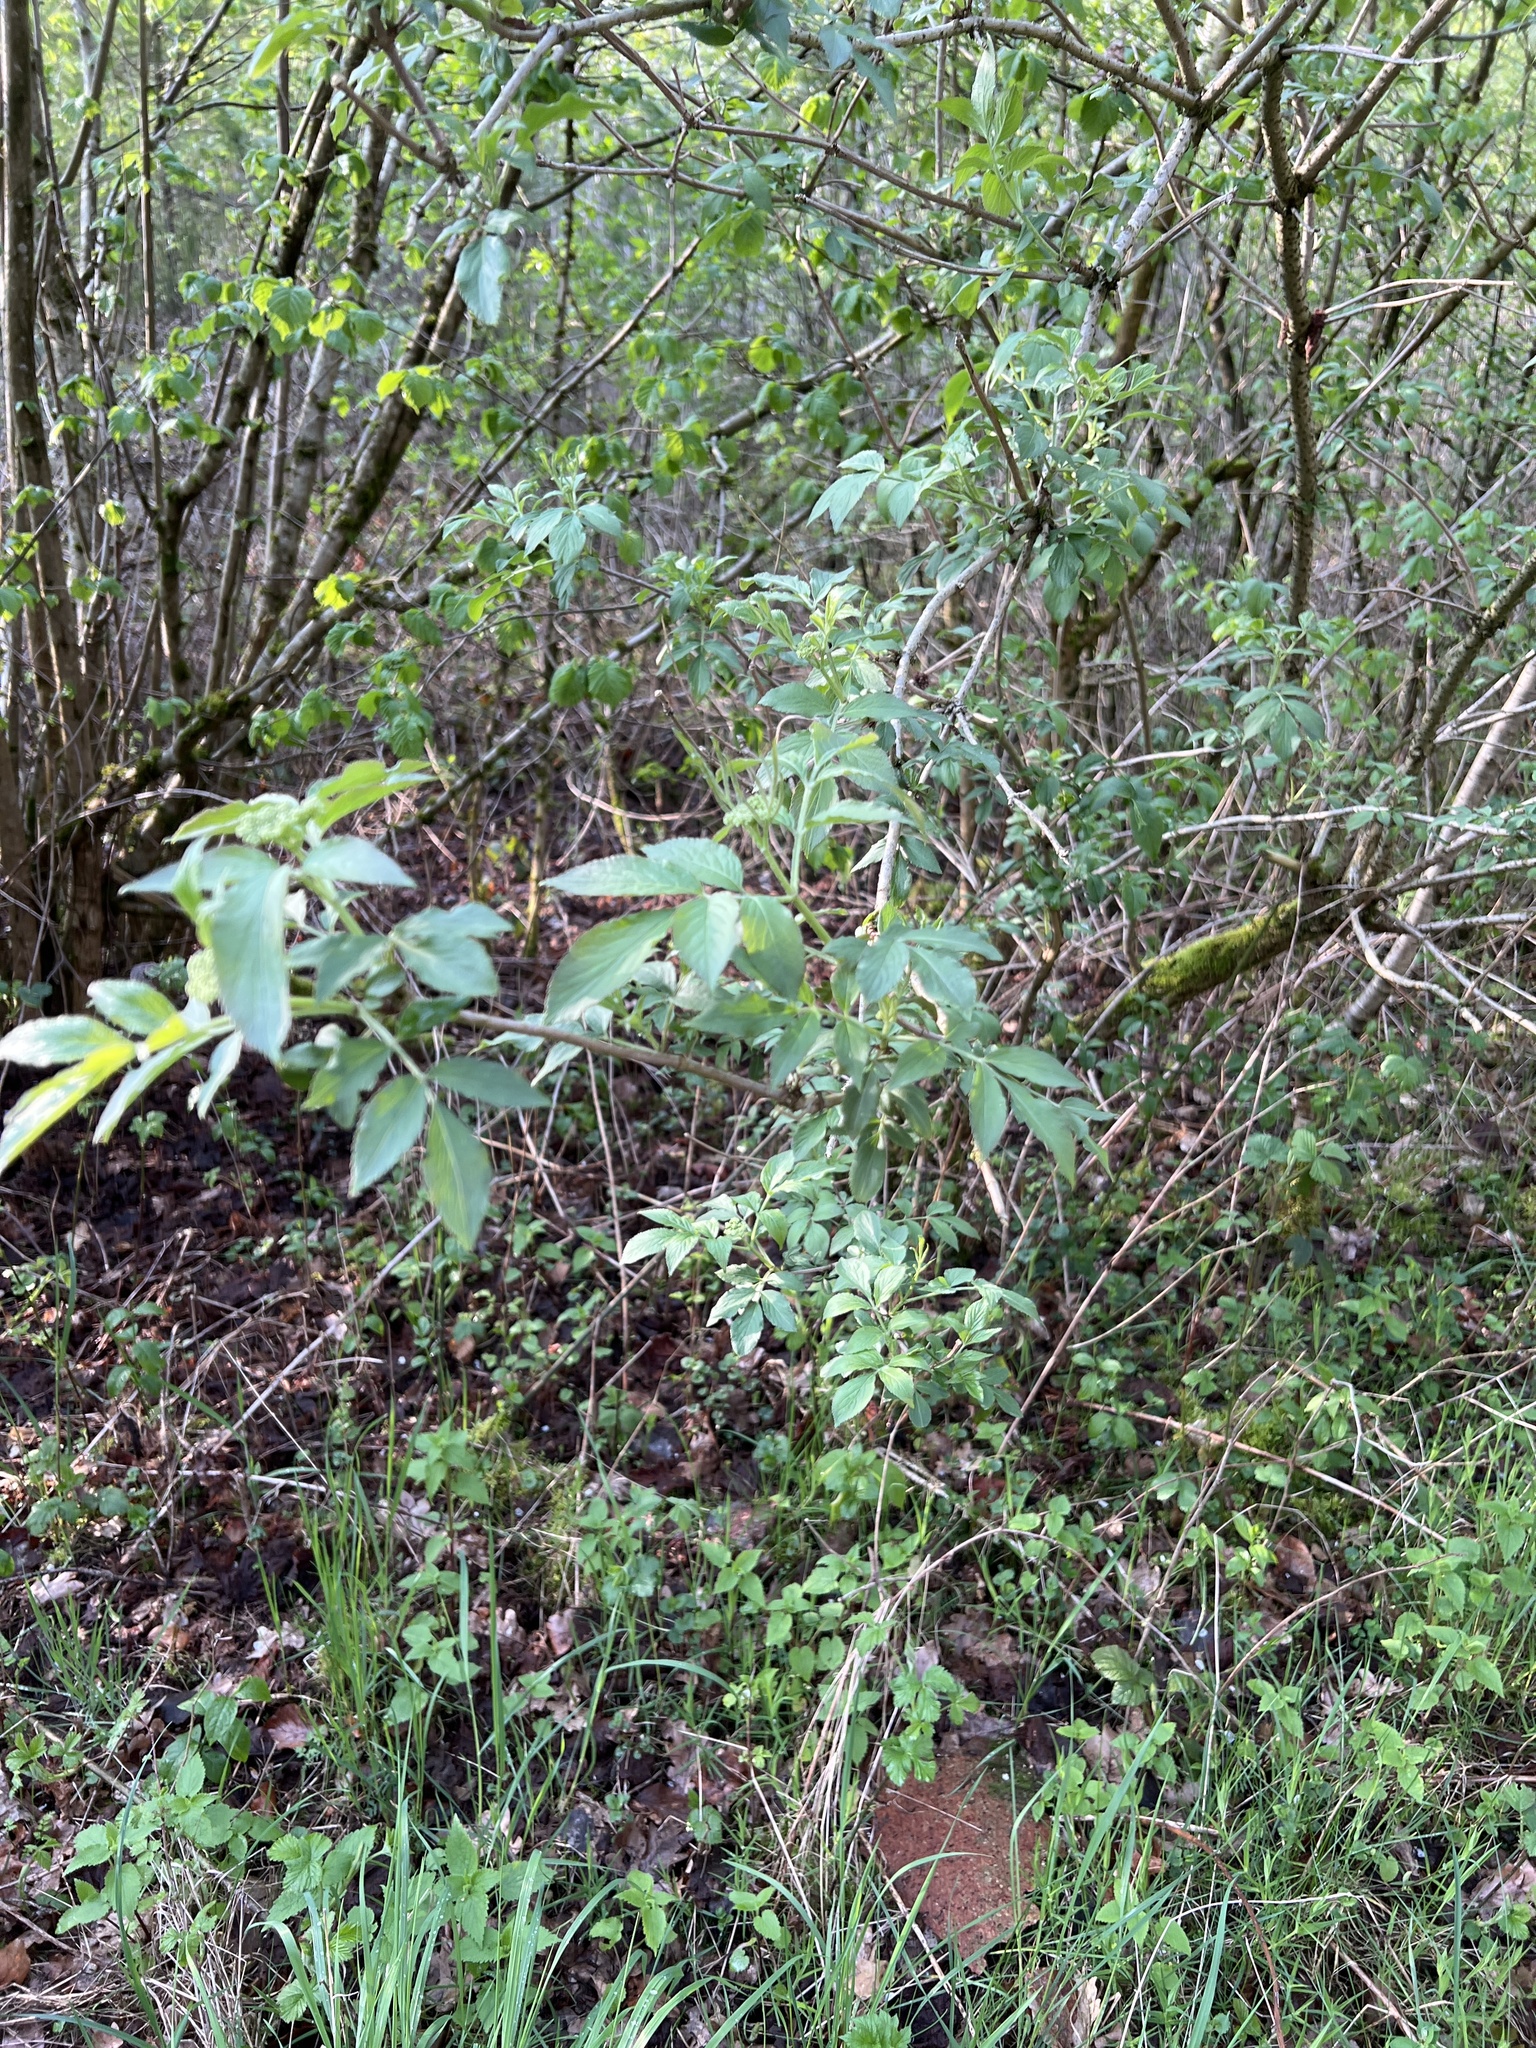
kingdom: Plantae
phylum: Tracheophyta
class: Magnoliopsida
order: Dipsacales
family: Viburnaceae
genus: Sambucus
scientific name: Sambucus nigra
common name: Elder
